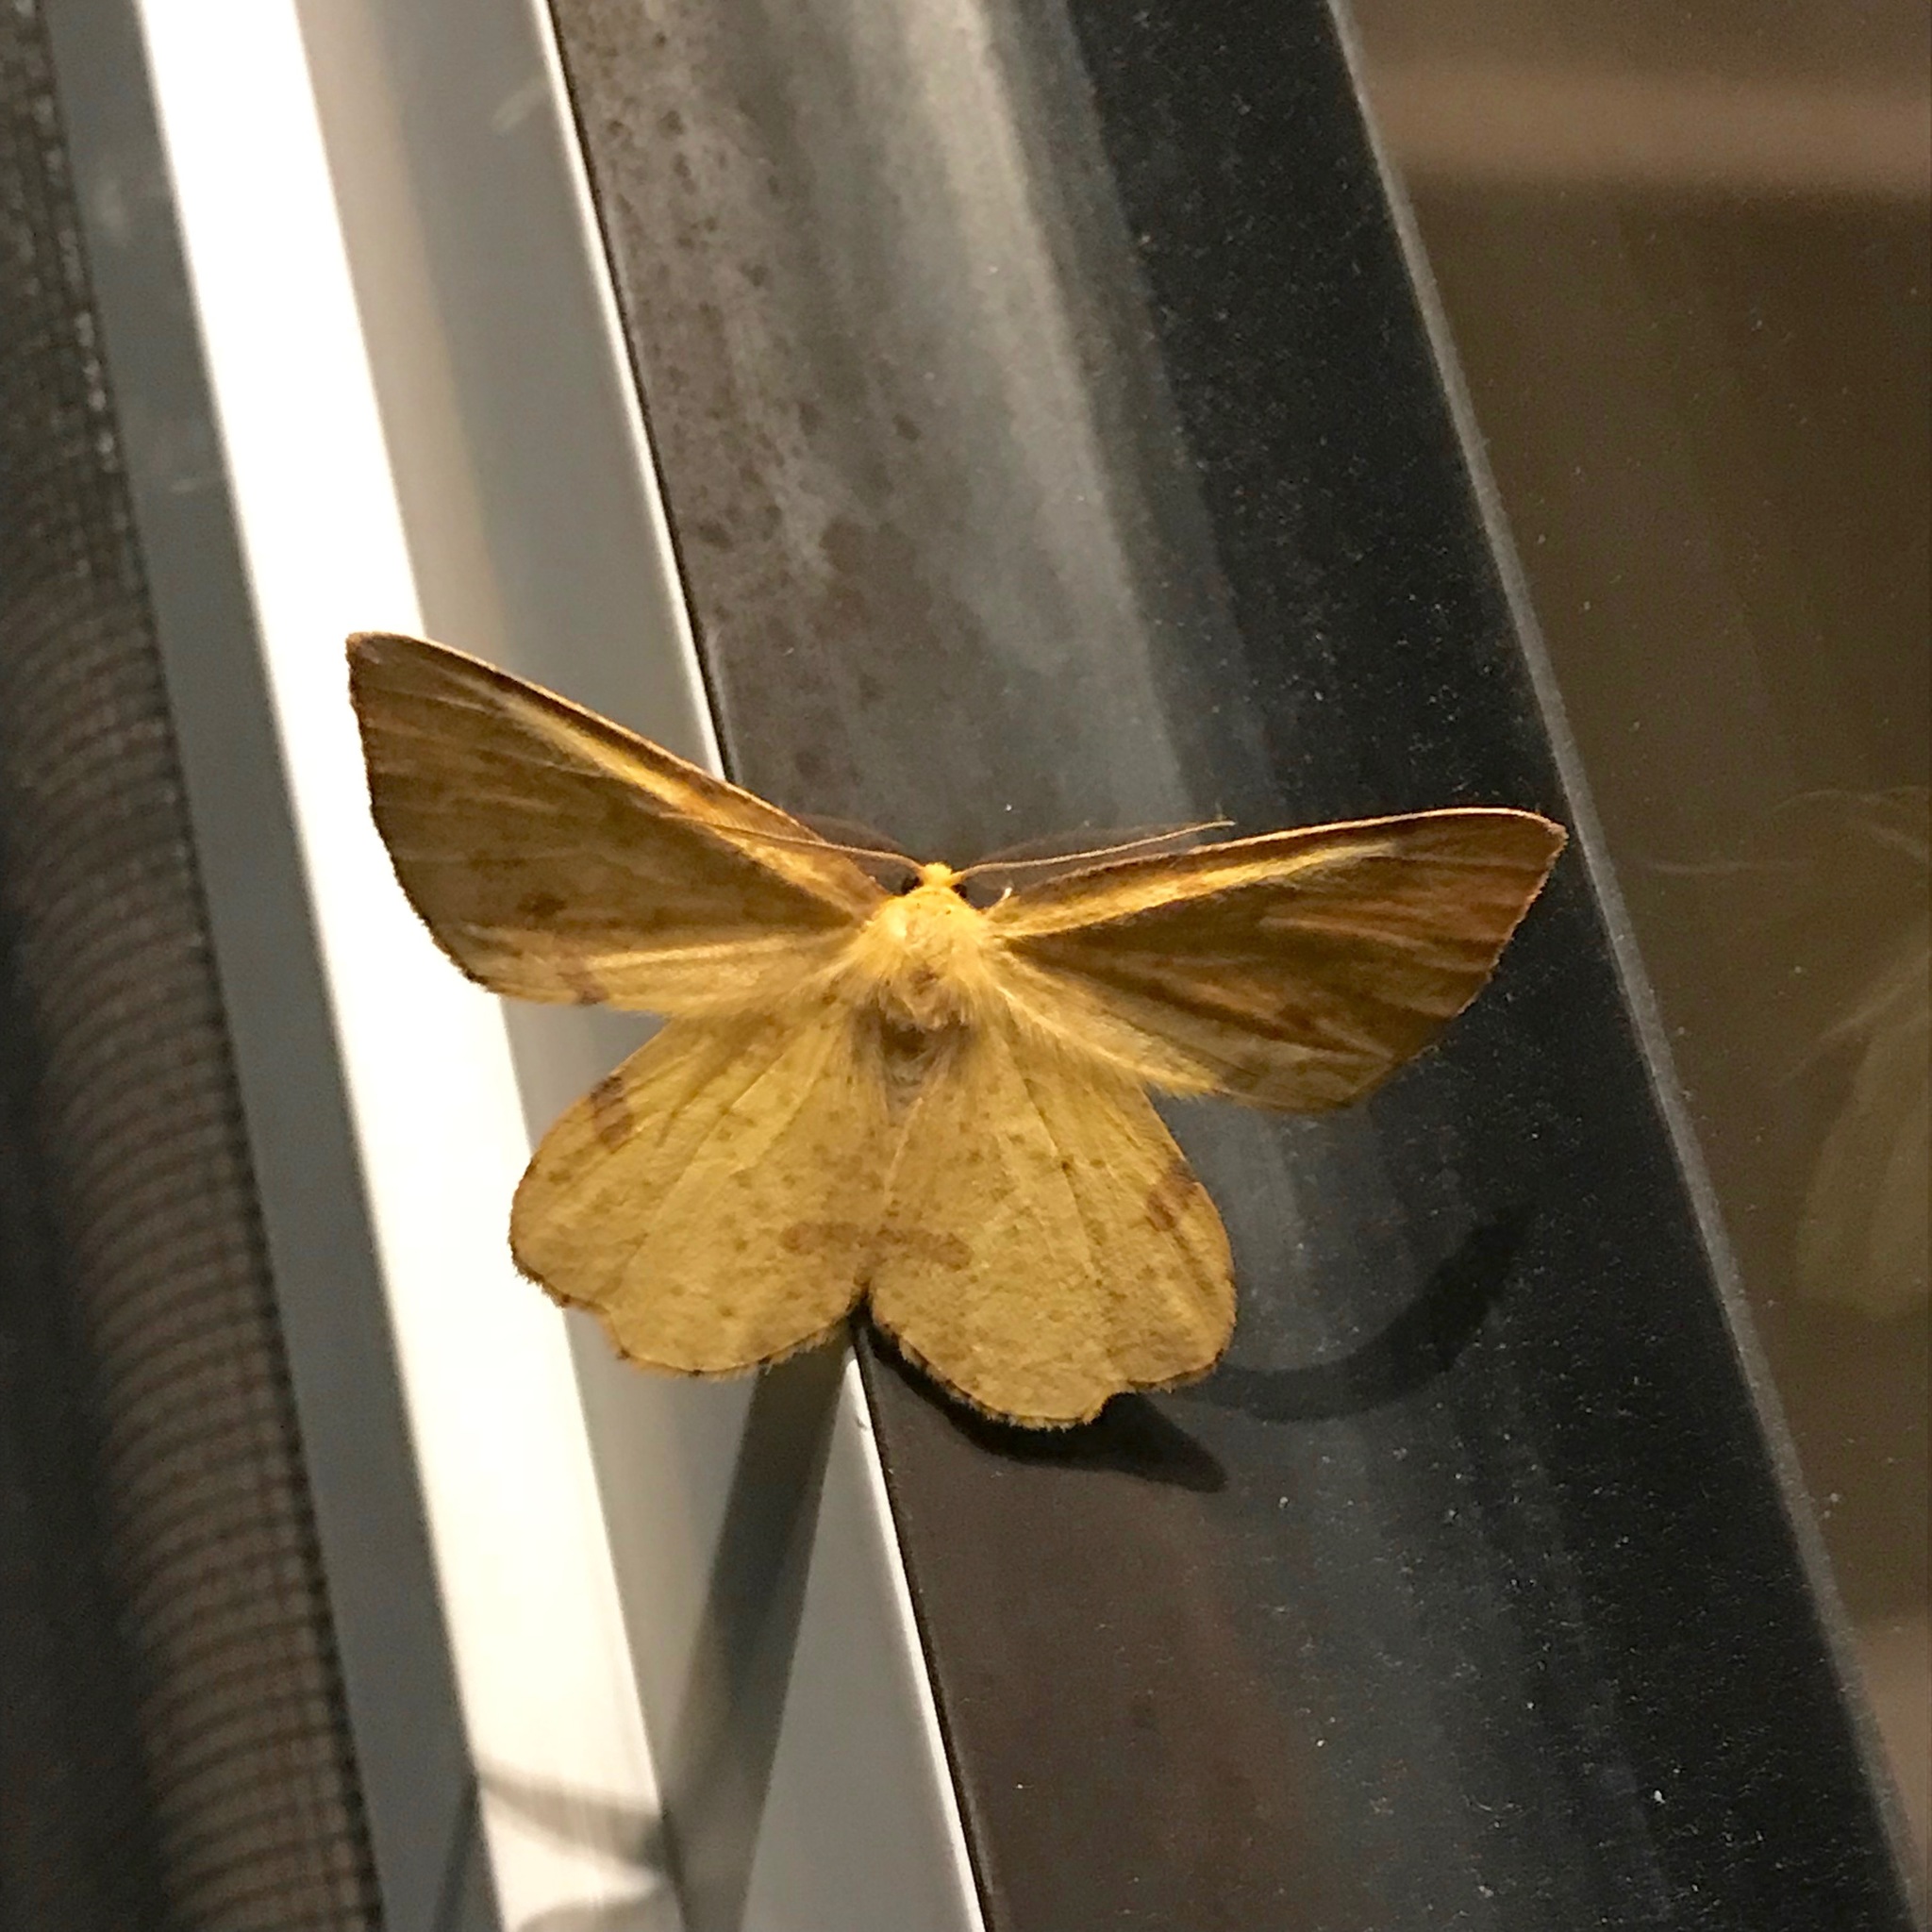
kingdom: Animalia
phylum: Arthropoda
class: Insecta
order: Lepidoptera
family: Geometridae
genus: Xanthotype
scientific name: Xanthotype
